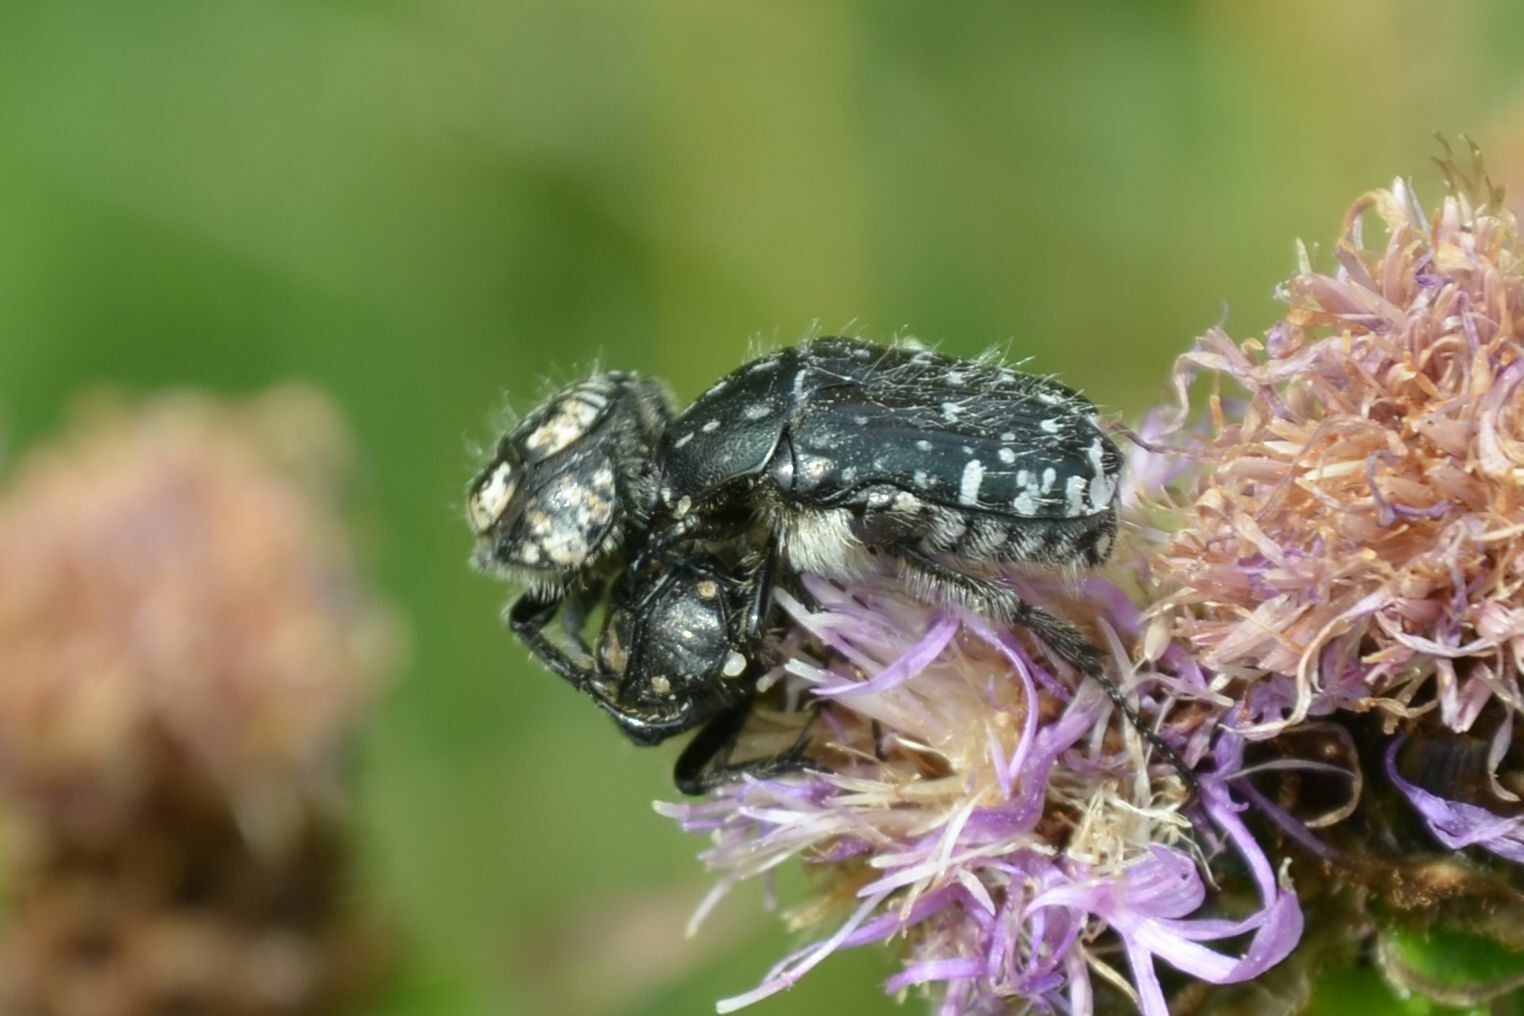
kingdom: Animalia
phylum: Arthropoda
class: Insecta
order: Coleoptera
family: Scarabaeidae
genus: Oxythyrea
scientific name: Oxythyrea funesta
